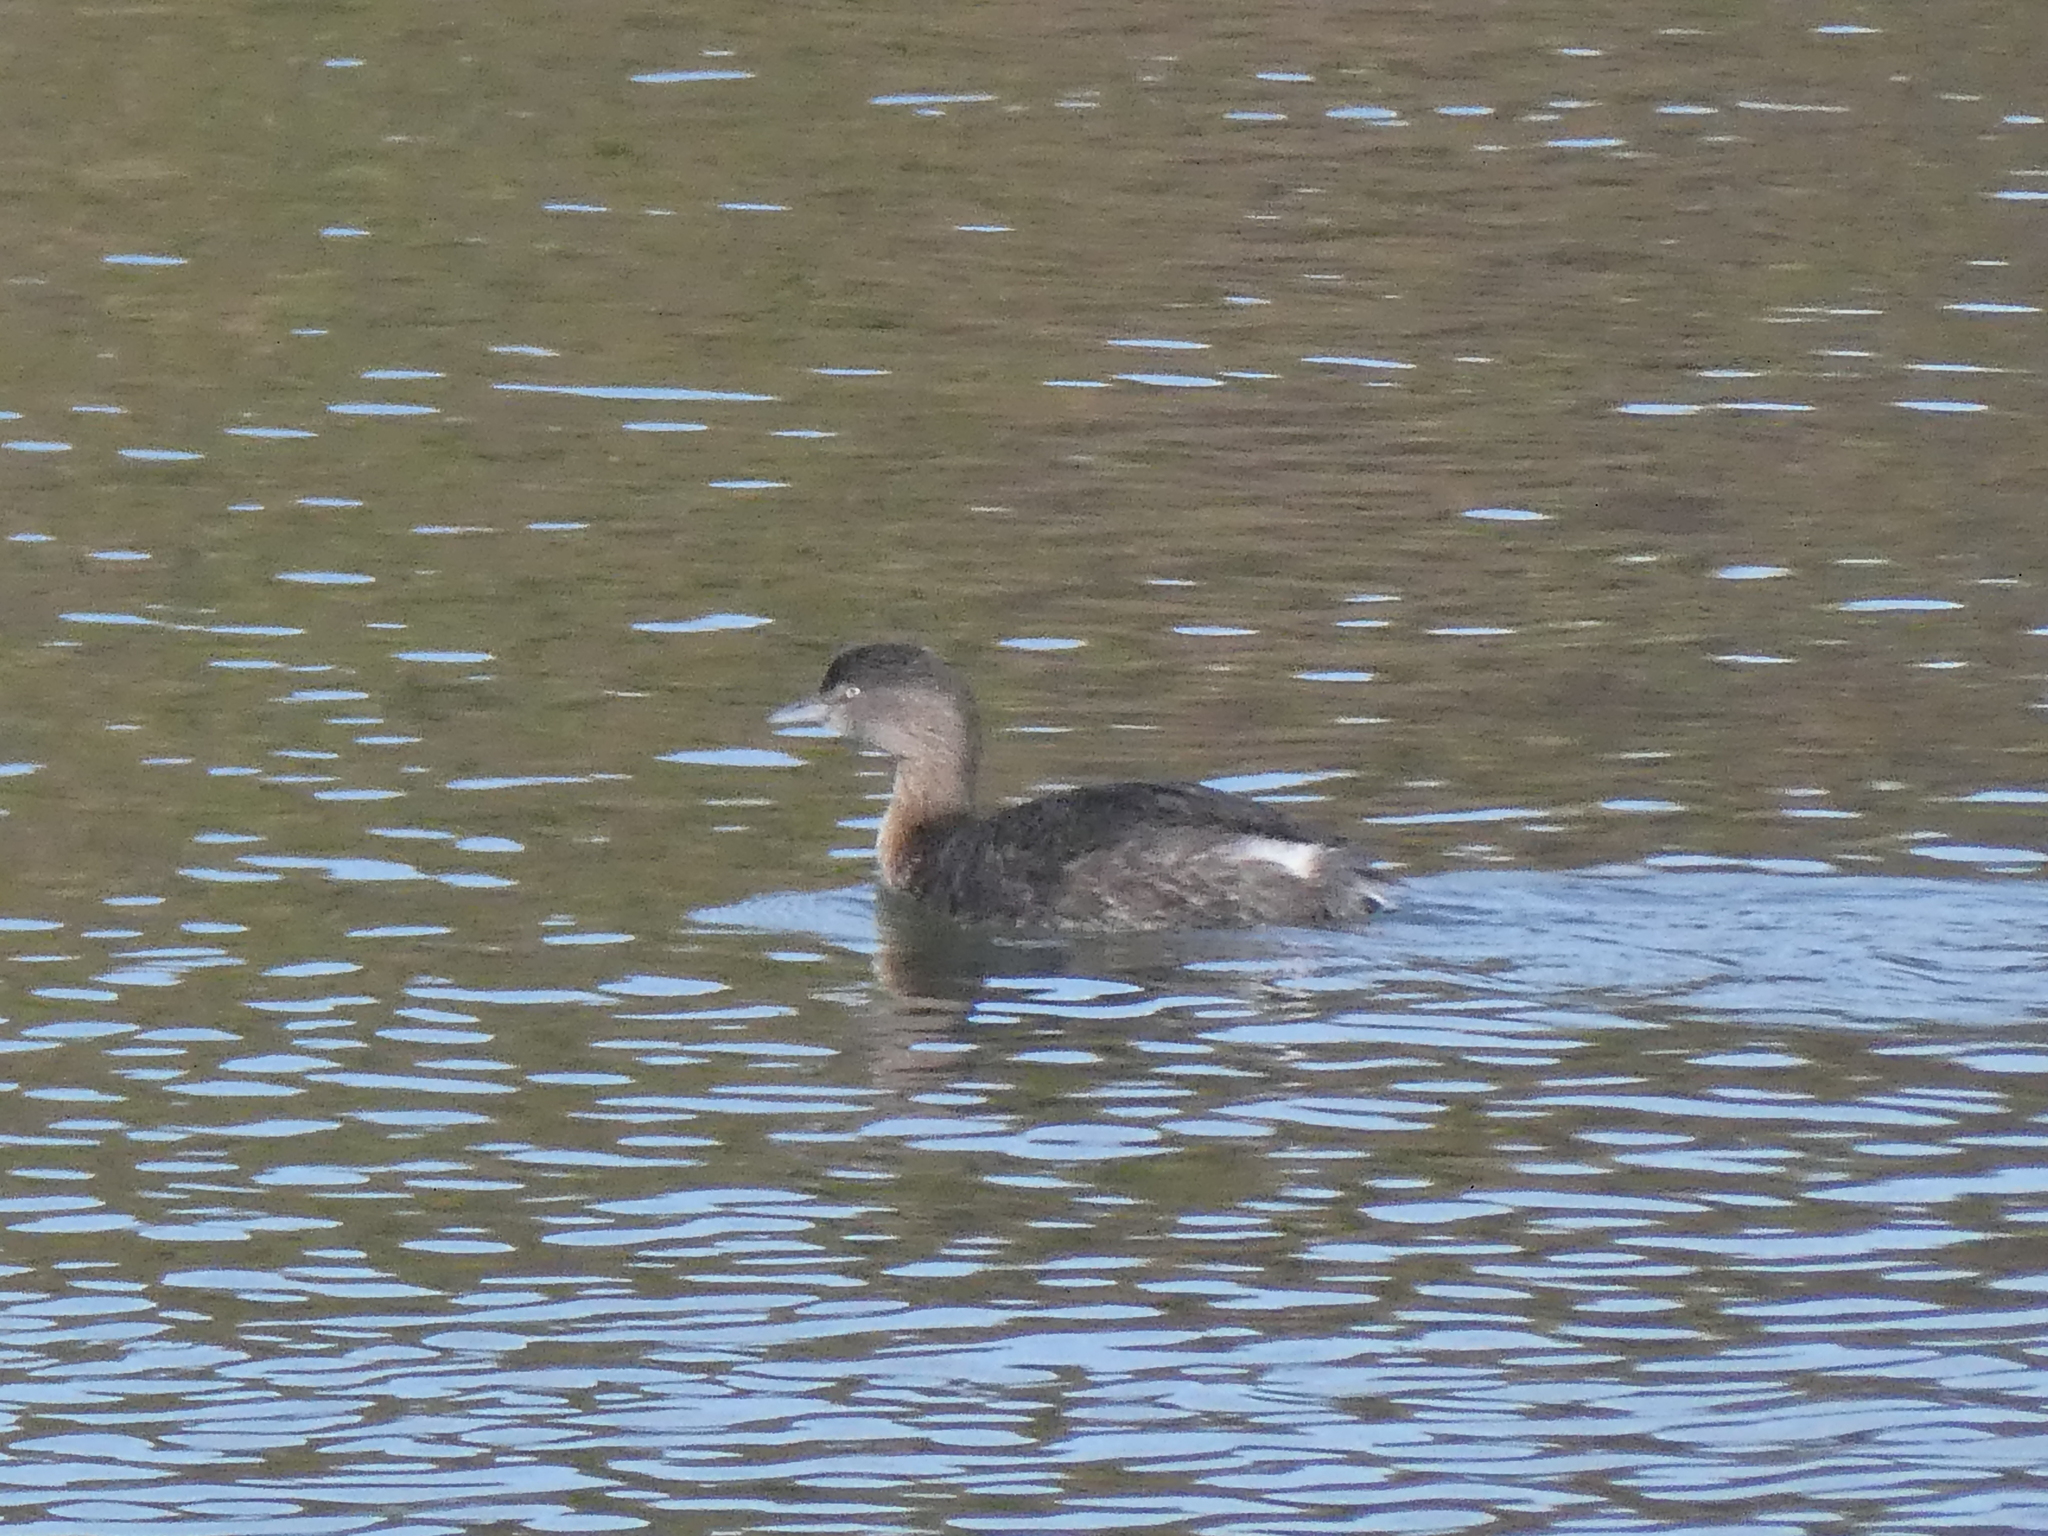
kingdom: Animalia
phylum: Chordata
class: Aves
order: Podicipediformes
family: Podicipedidae
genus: Poliocephalus
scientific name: Poliocephalus rufopectus
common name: New zealand grebe
